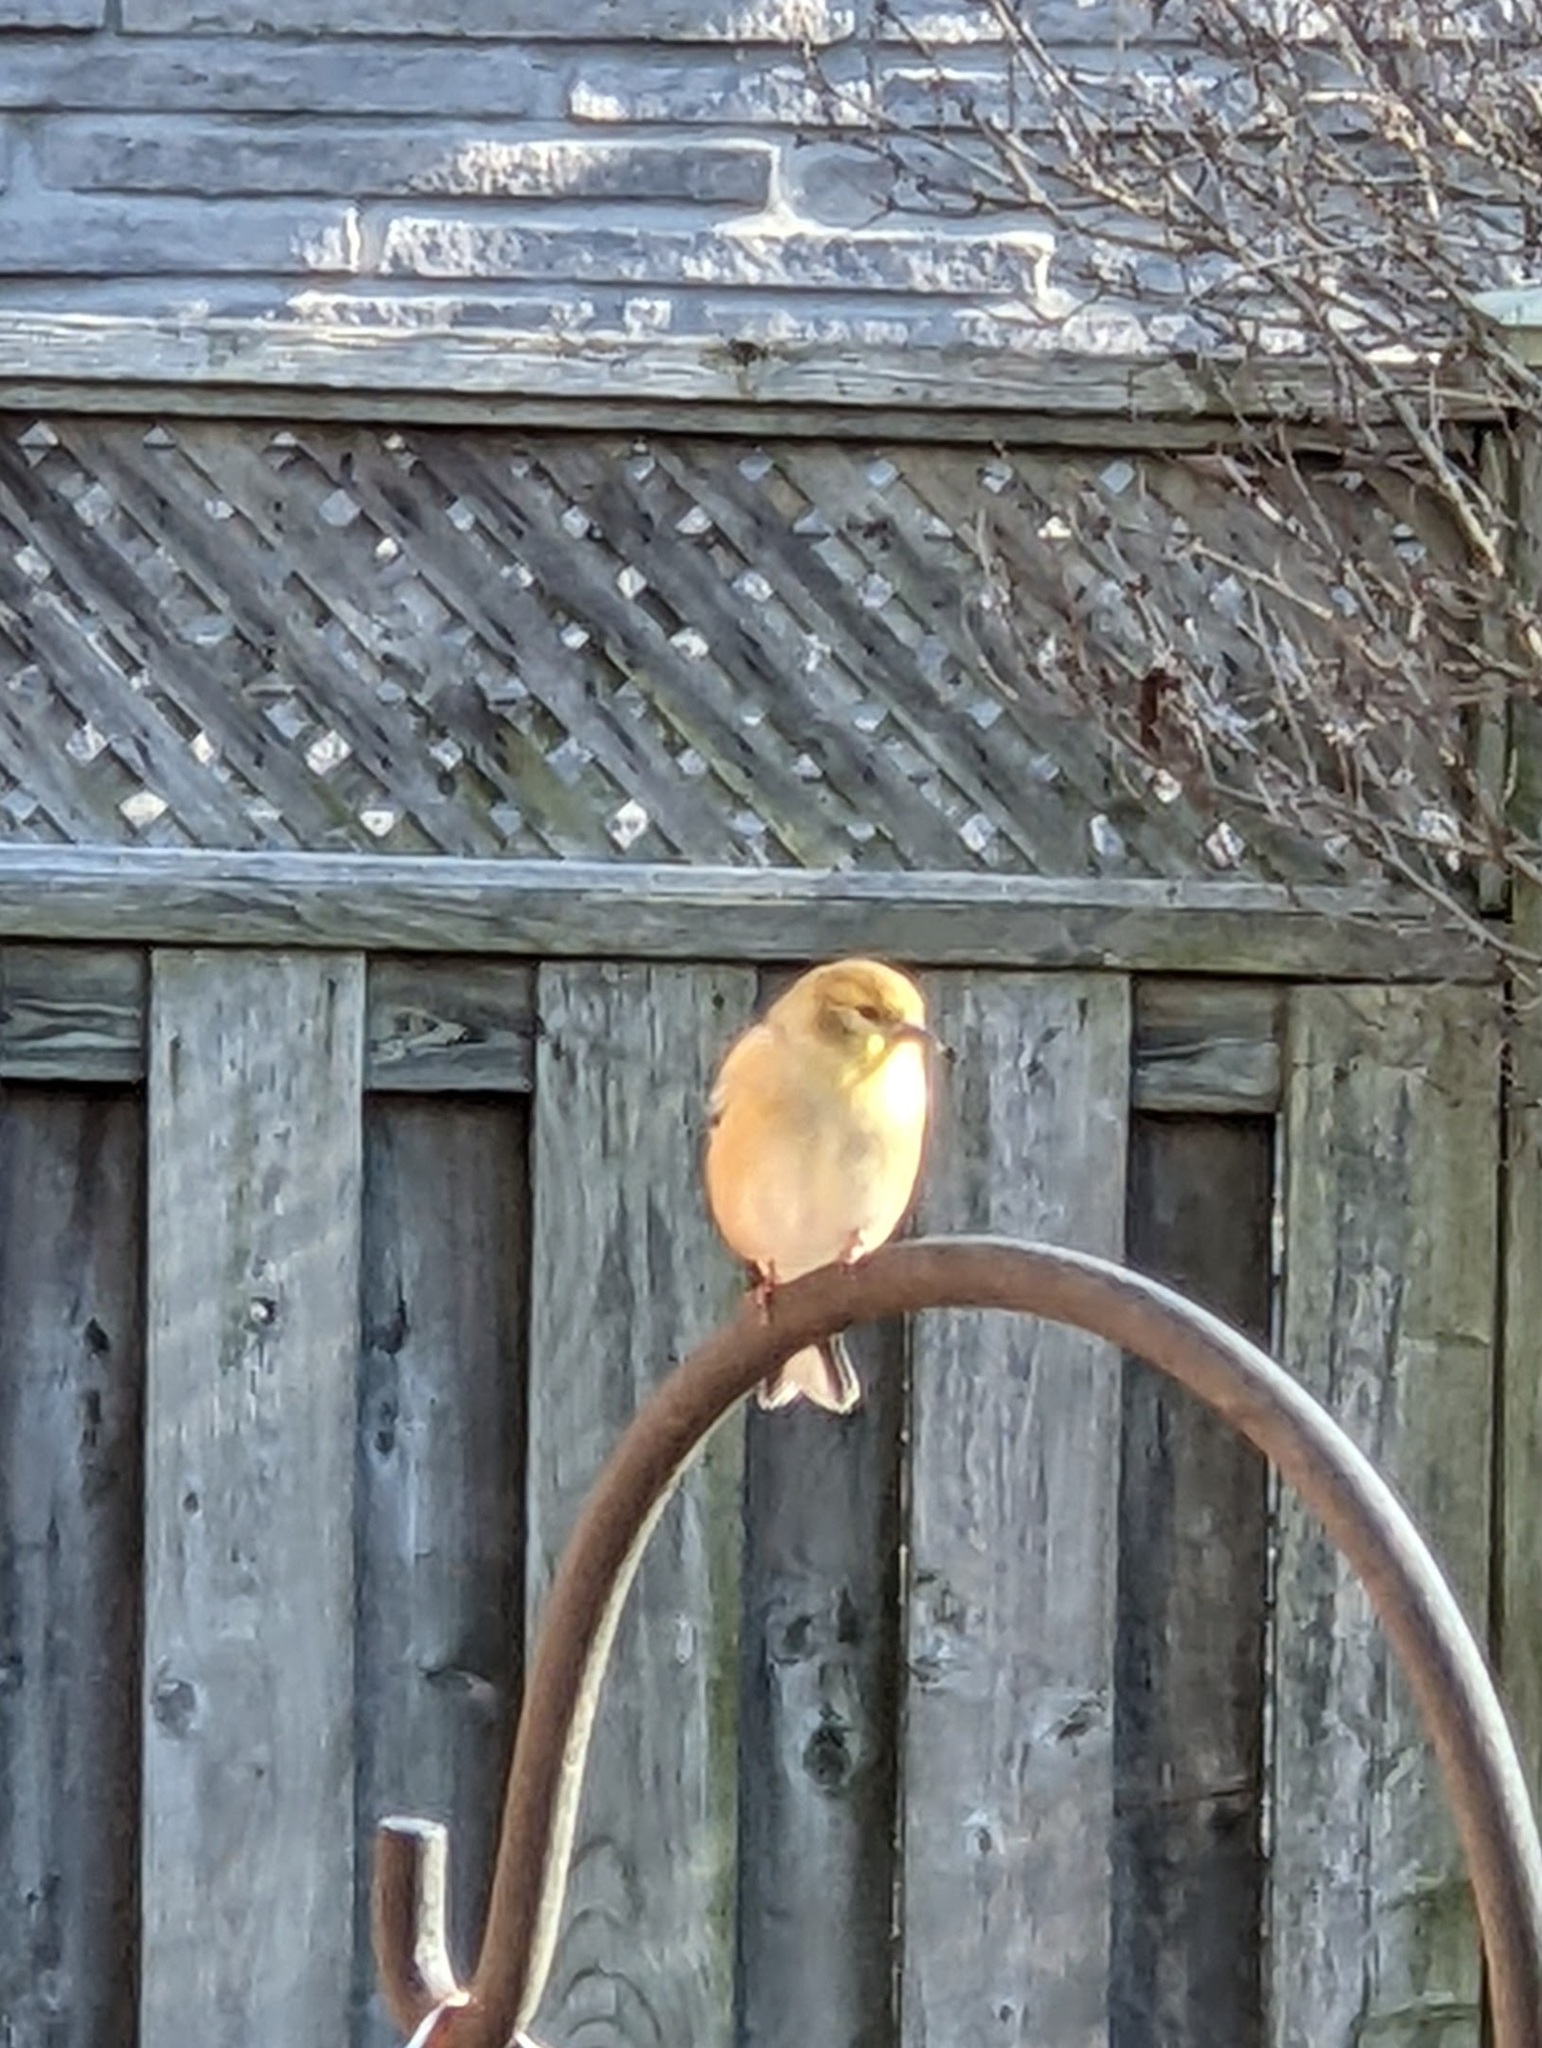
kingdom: Animalia
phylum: Chordata
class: Aves
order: Passeriformes
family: Fringillidae
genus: Spinus
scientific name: Spinus tristis
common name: American goldfinch
